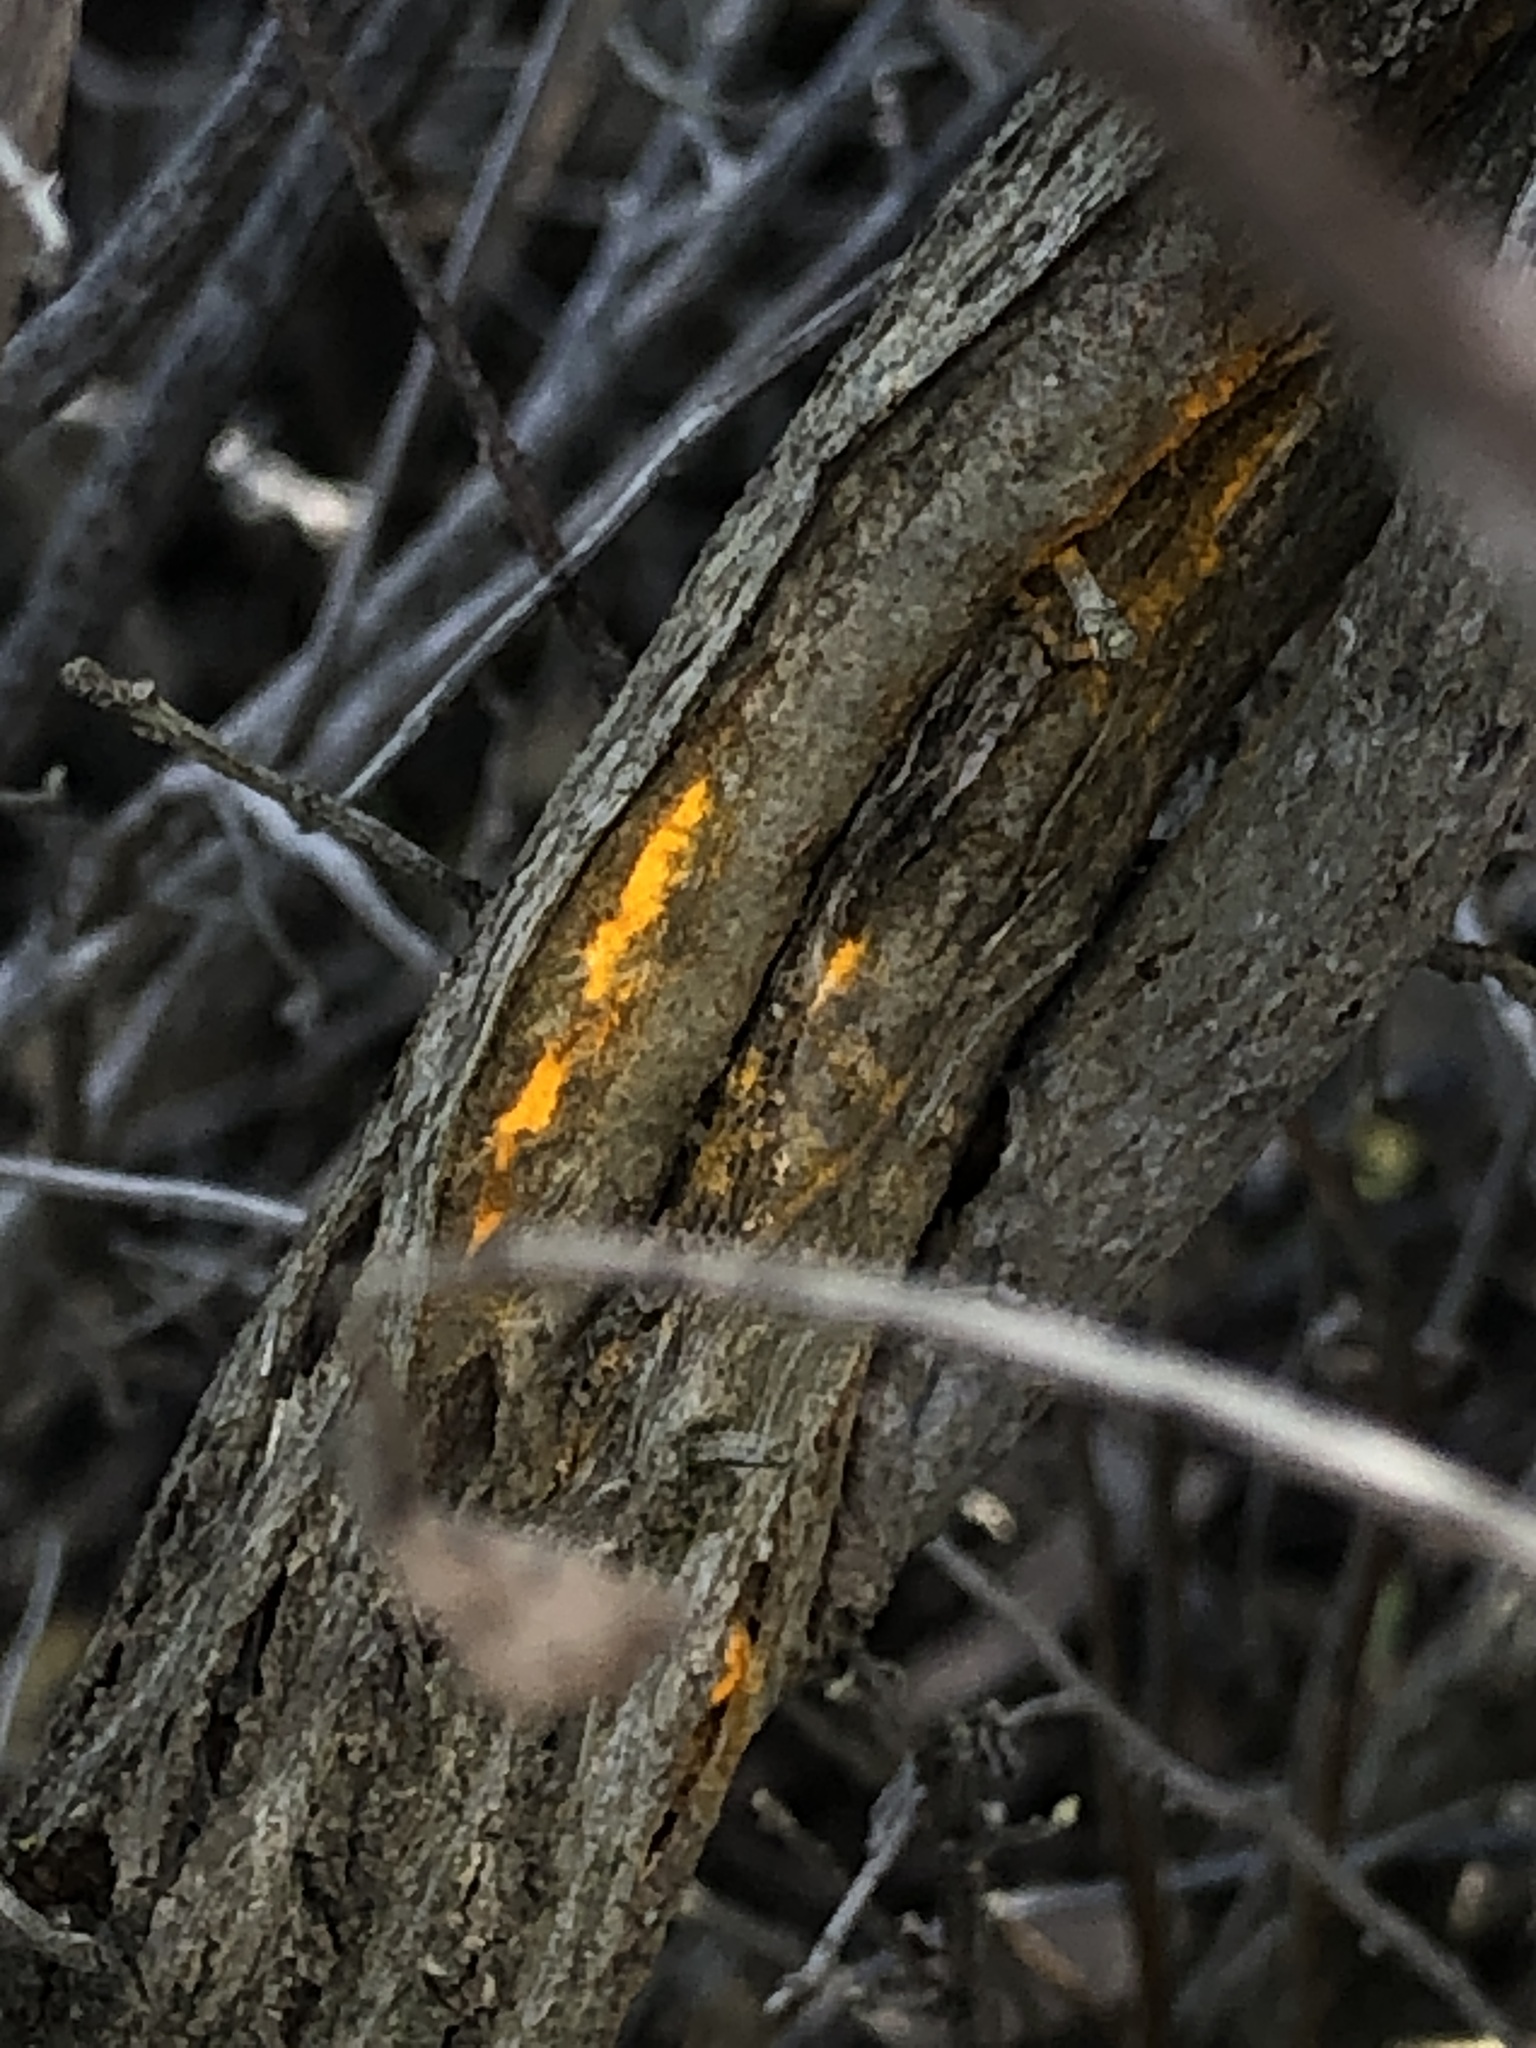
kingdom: Fungi
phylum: Basidiomycota
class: Pucciniomycetes
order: Pucciniales
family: Pucciniaceae
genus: Eriosporangium
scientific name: Eriosporangium evadens
